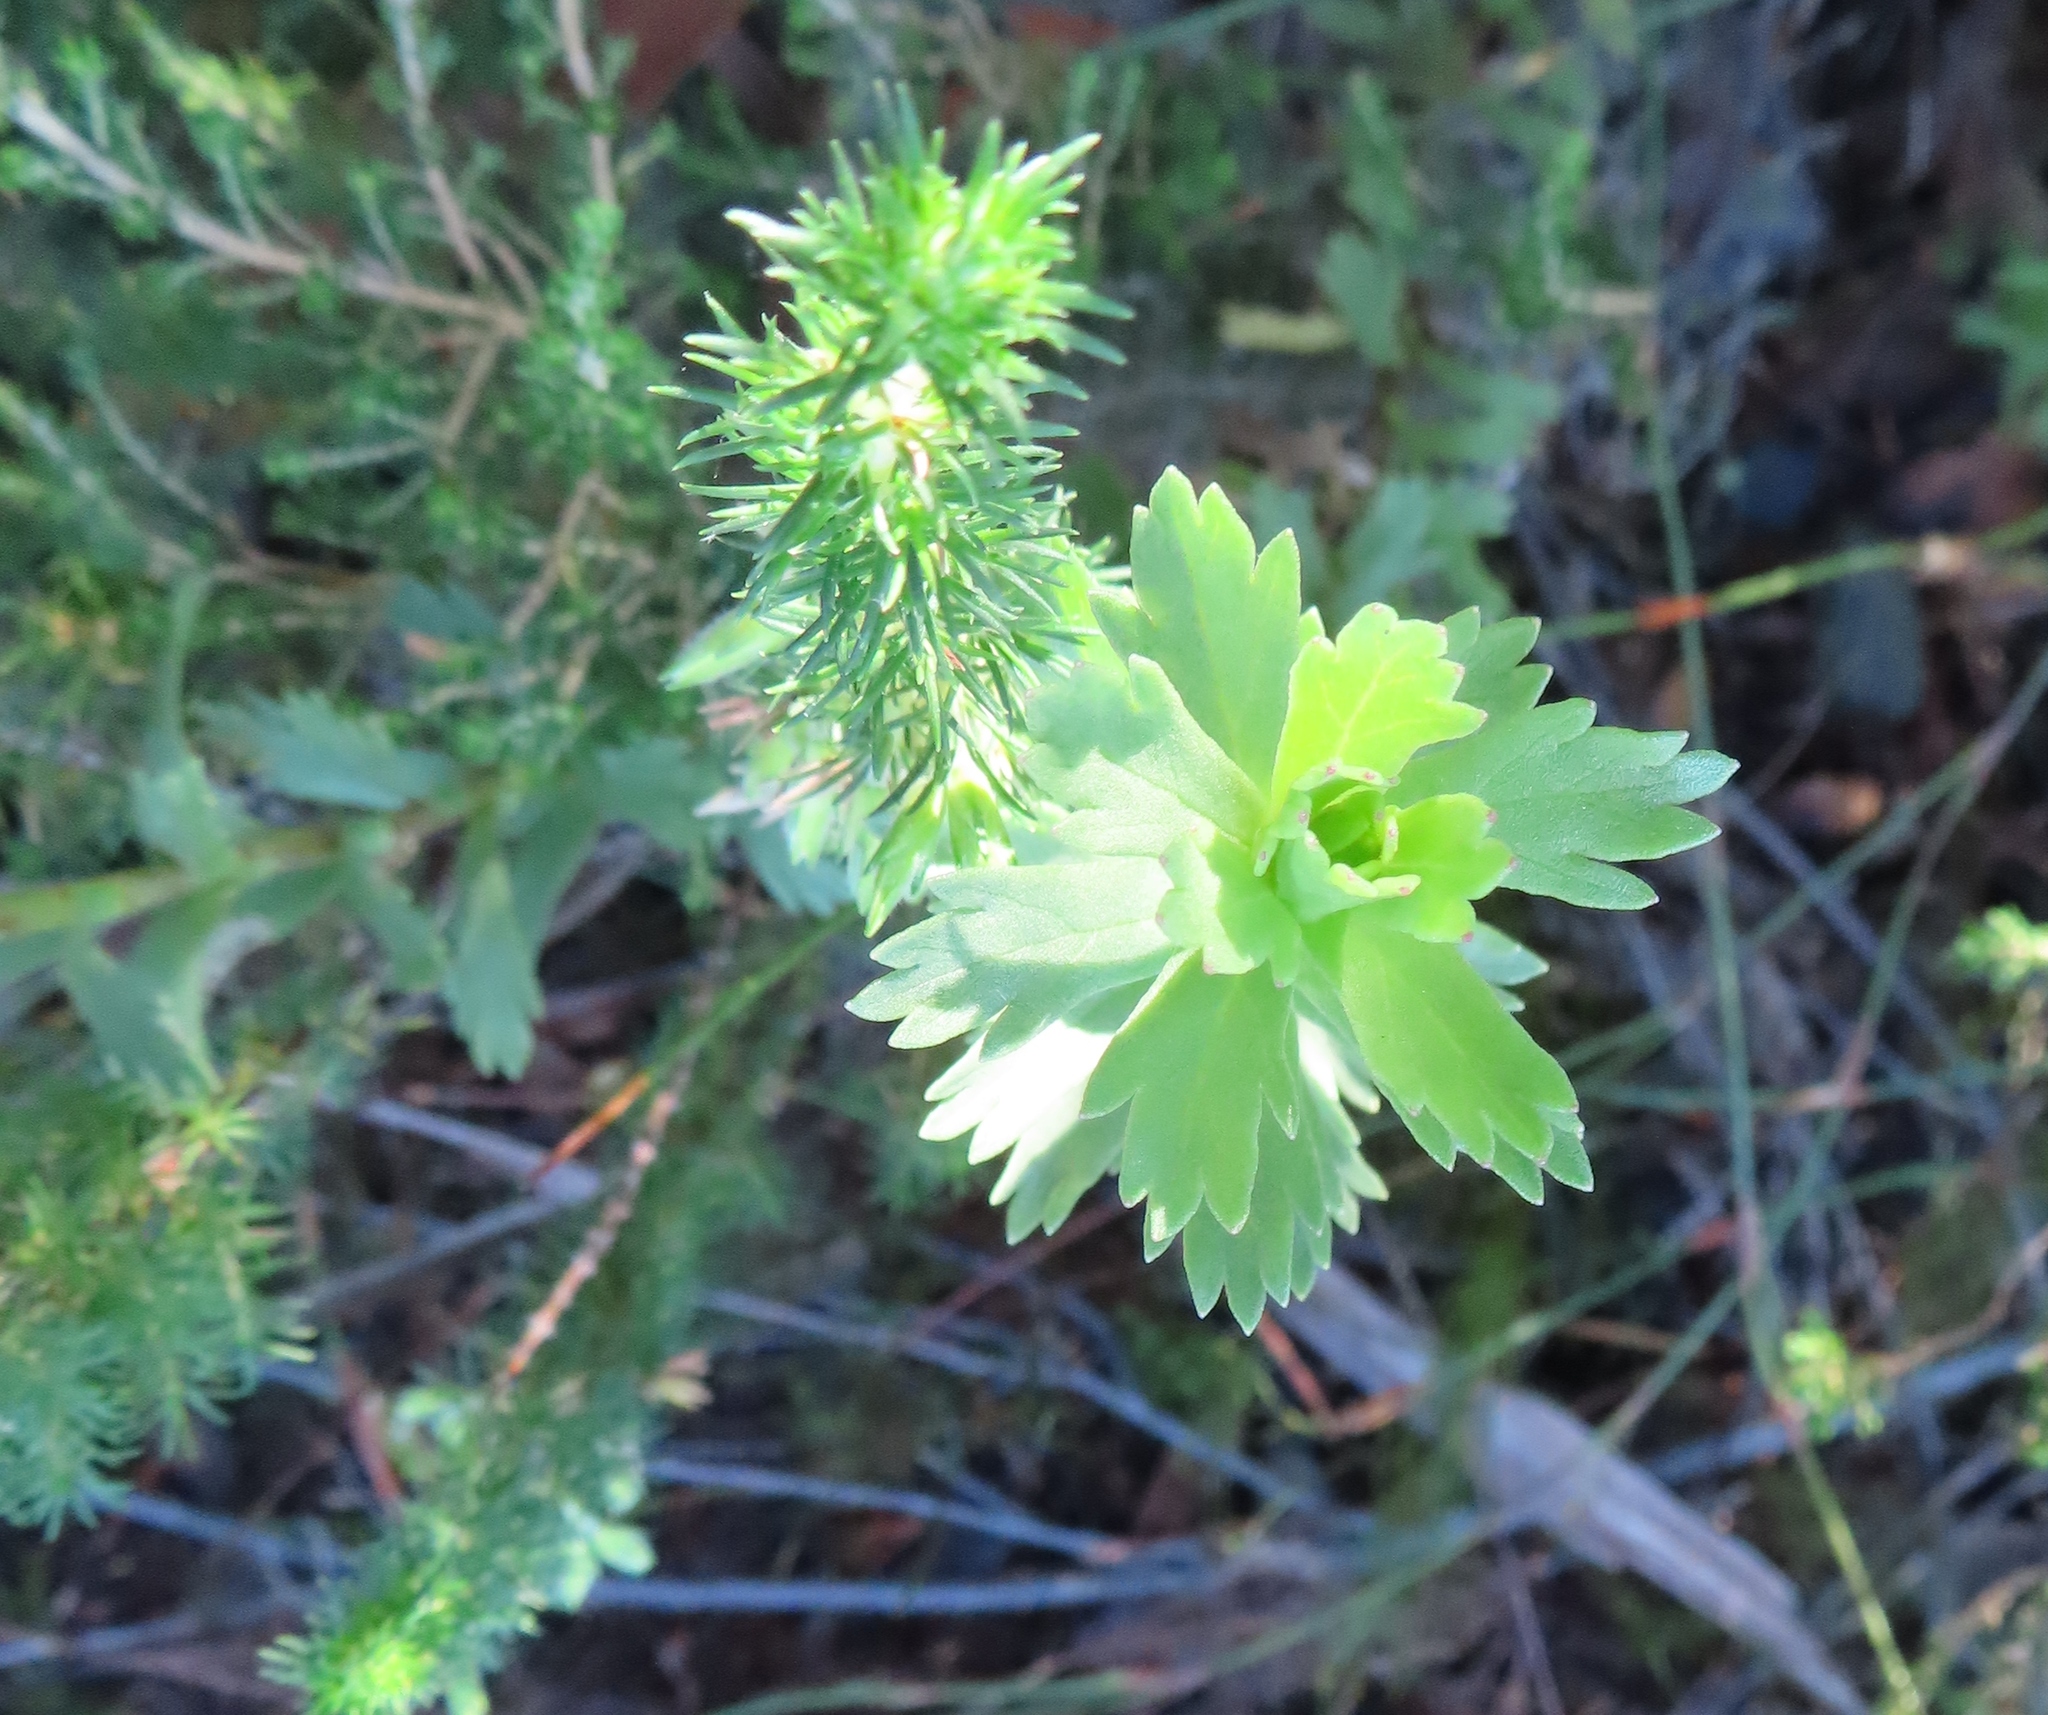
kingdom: Plantae
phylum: Tracheophyta
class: Magnoliopsida
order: Asterales
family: Asteraceae
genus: Ursinia
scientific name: Ursinia caledonica
